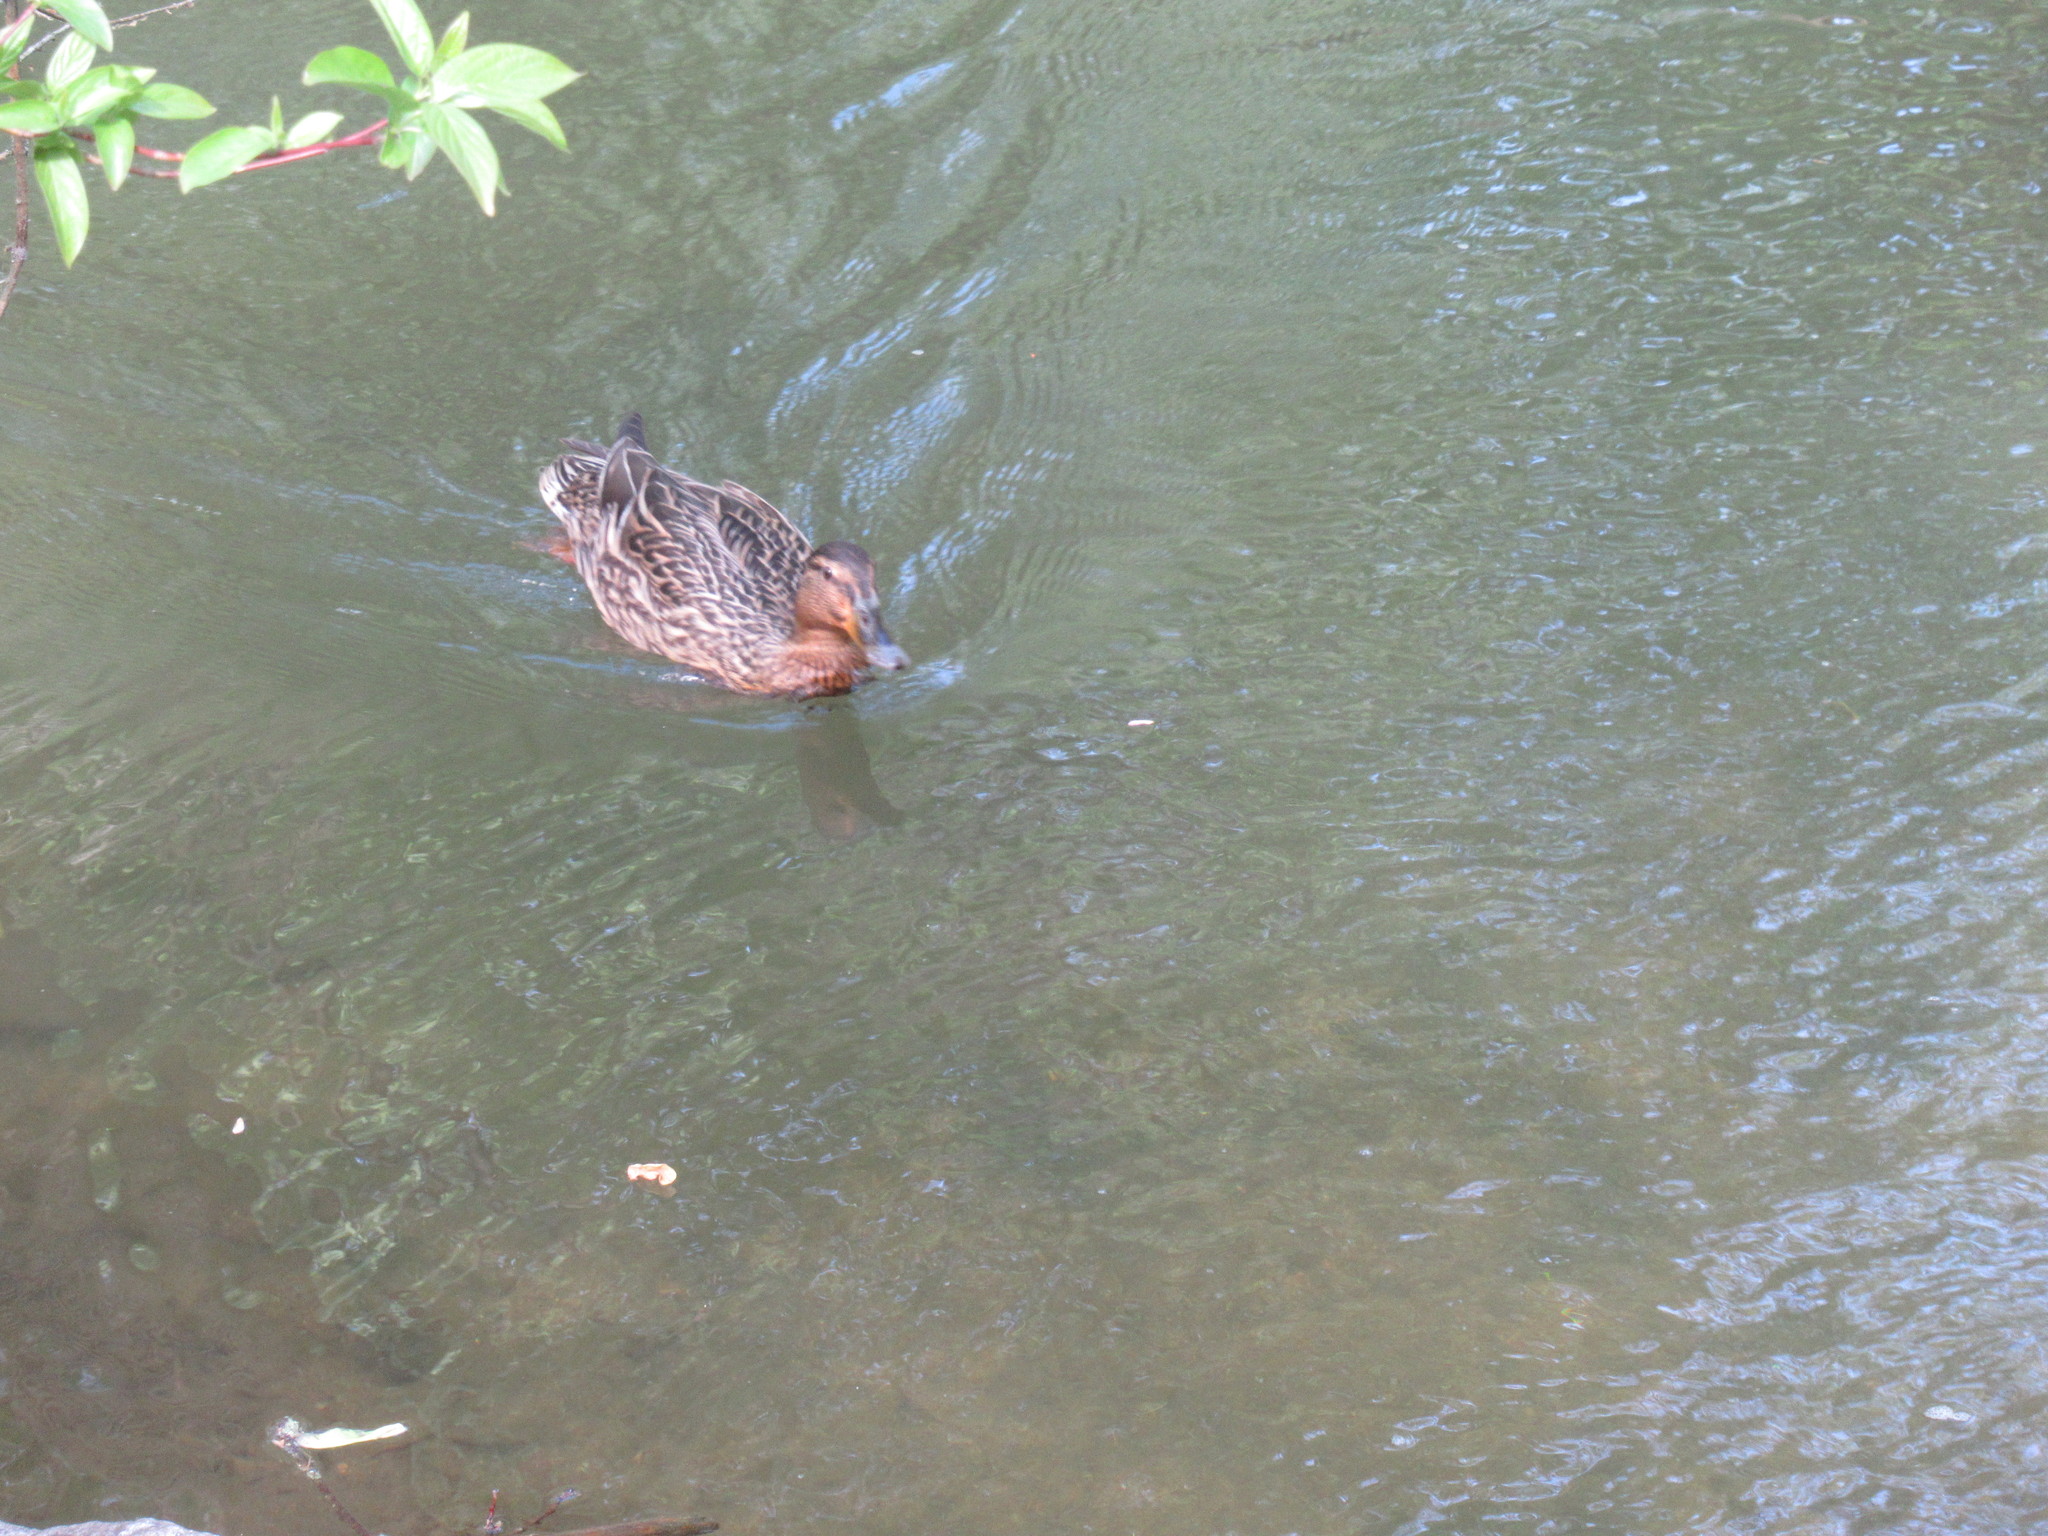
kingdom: Animalia
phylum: Chordata
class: Aves
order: Anseriformes
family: Anatidae
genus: Anas
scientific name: Anas platyrhynchos
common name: Mallard
